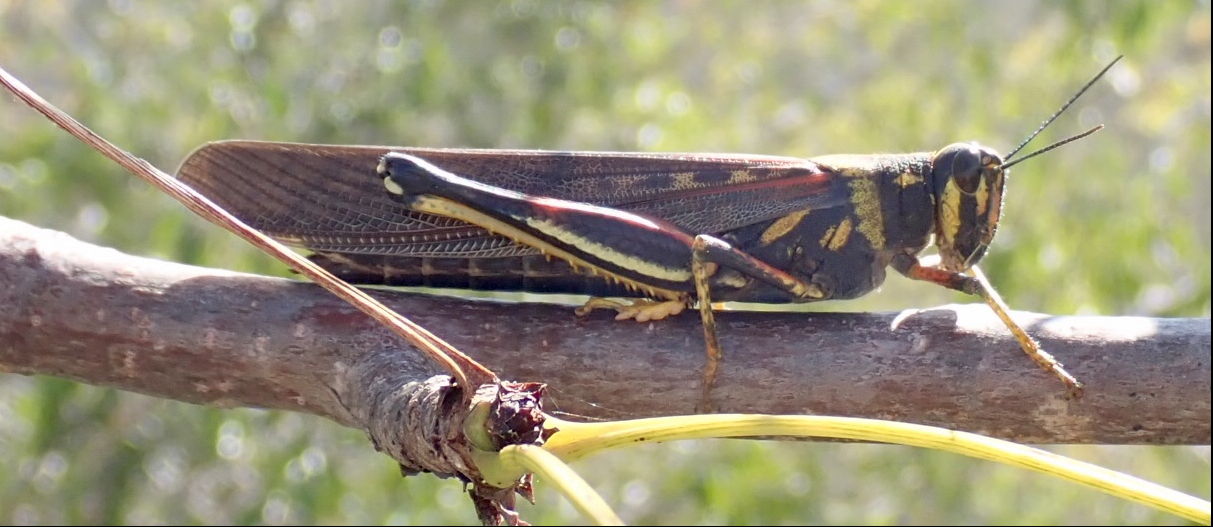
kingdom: Animalia
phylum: Arthropoda
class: Insecta
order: Orthoptera
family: Acrididae
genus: Schistocerca
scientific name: Schistocerca melanocera
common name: Large painted locust
